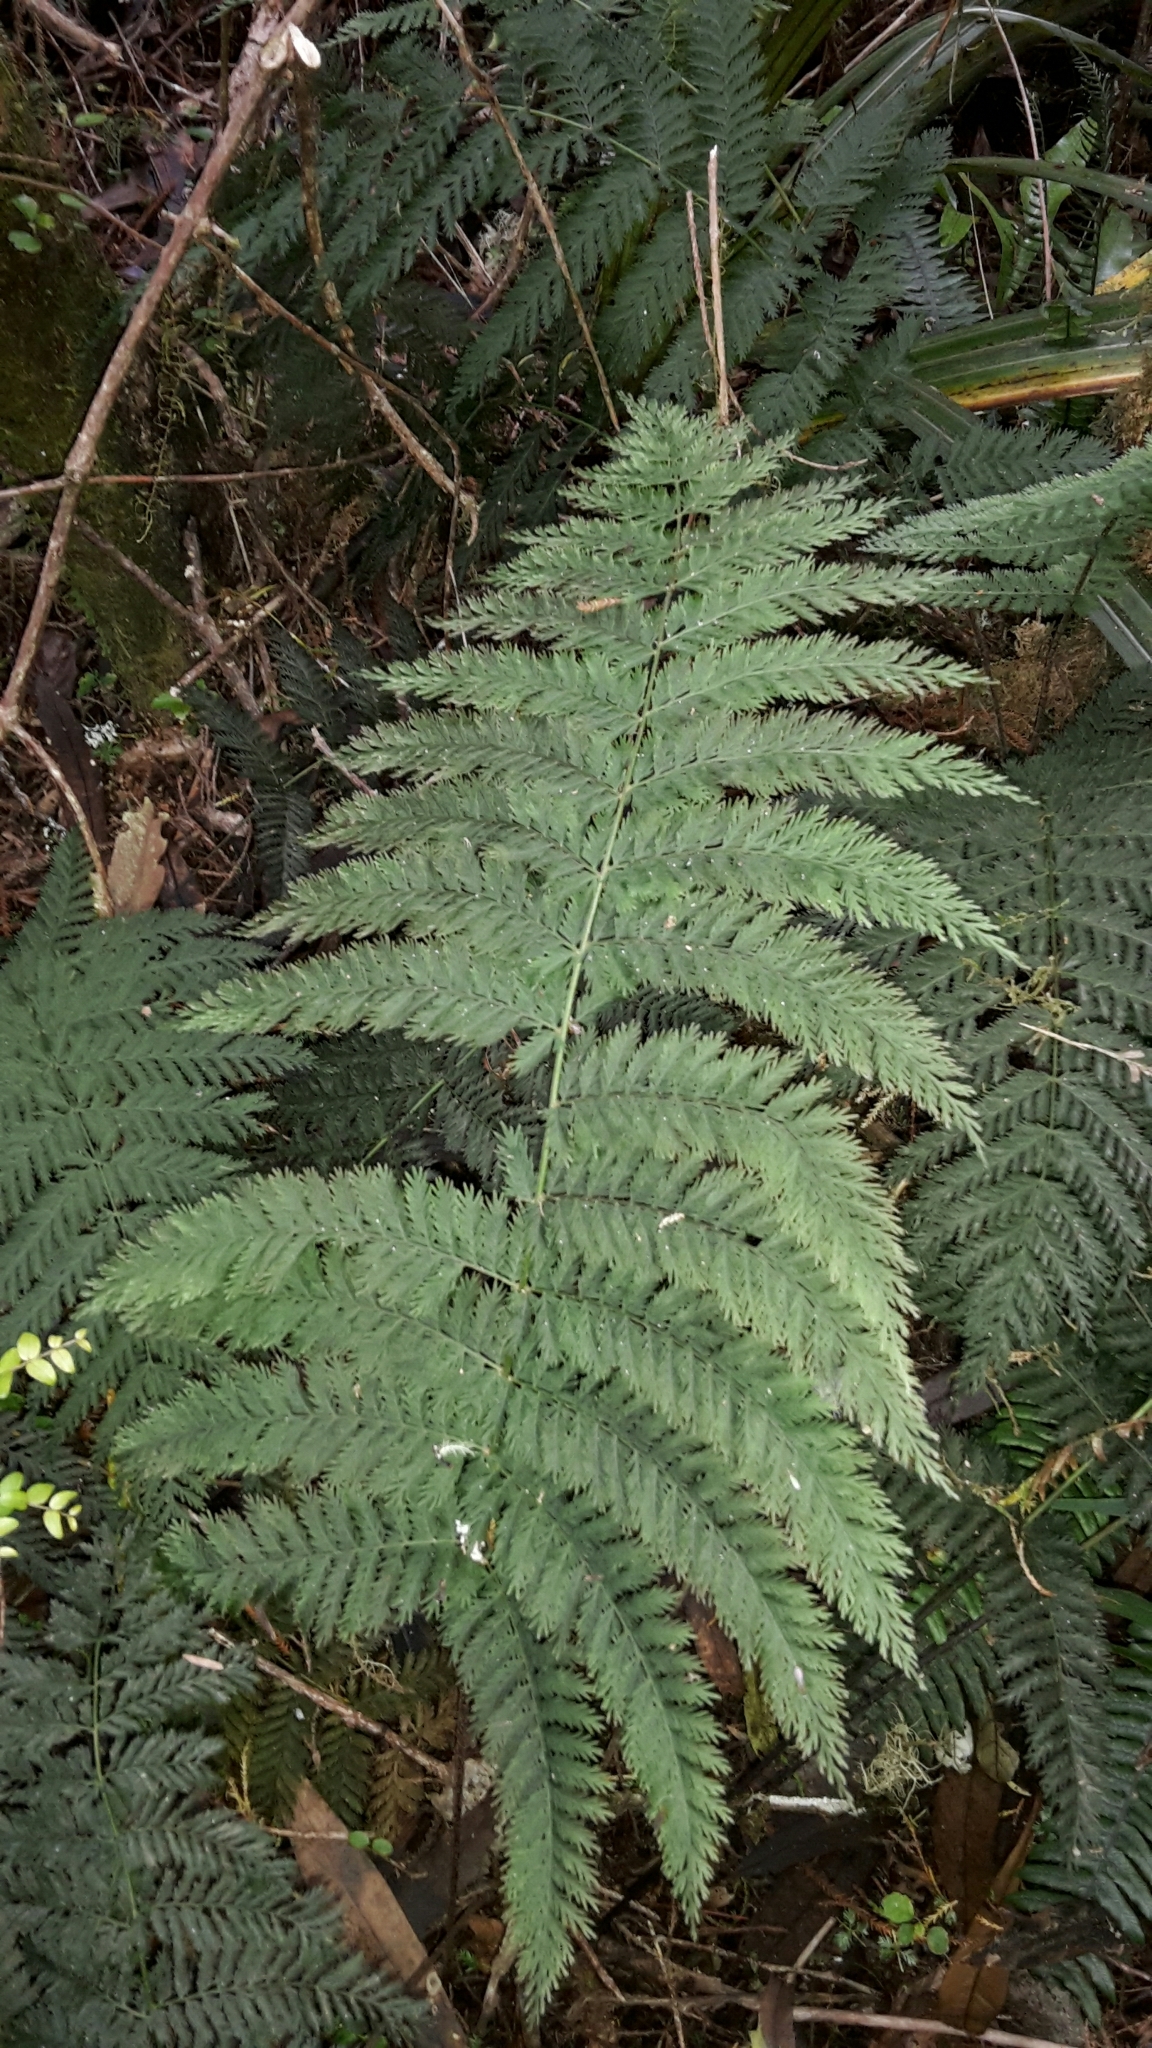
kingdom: Plantae
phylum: Tracheophyta
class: Polypodiopsida
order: Osmundales
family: Osmundaceae
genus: Leptopteris
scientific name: Leptopteris hymenophylloides
